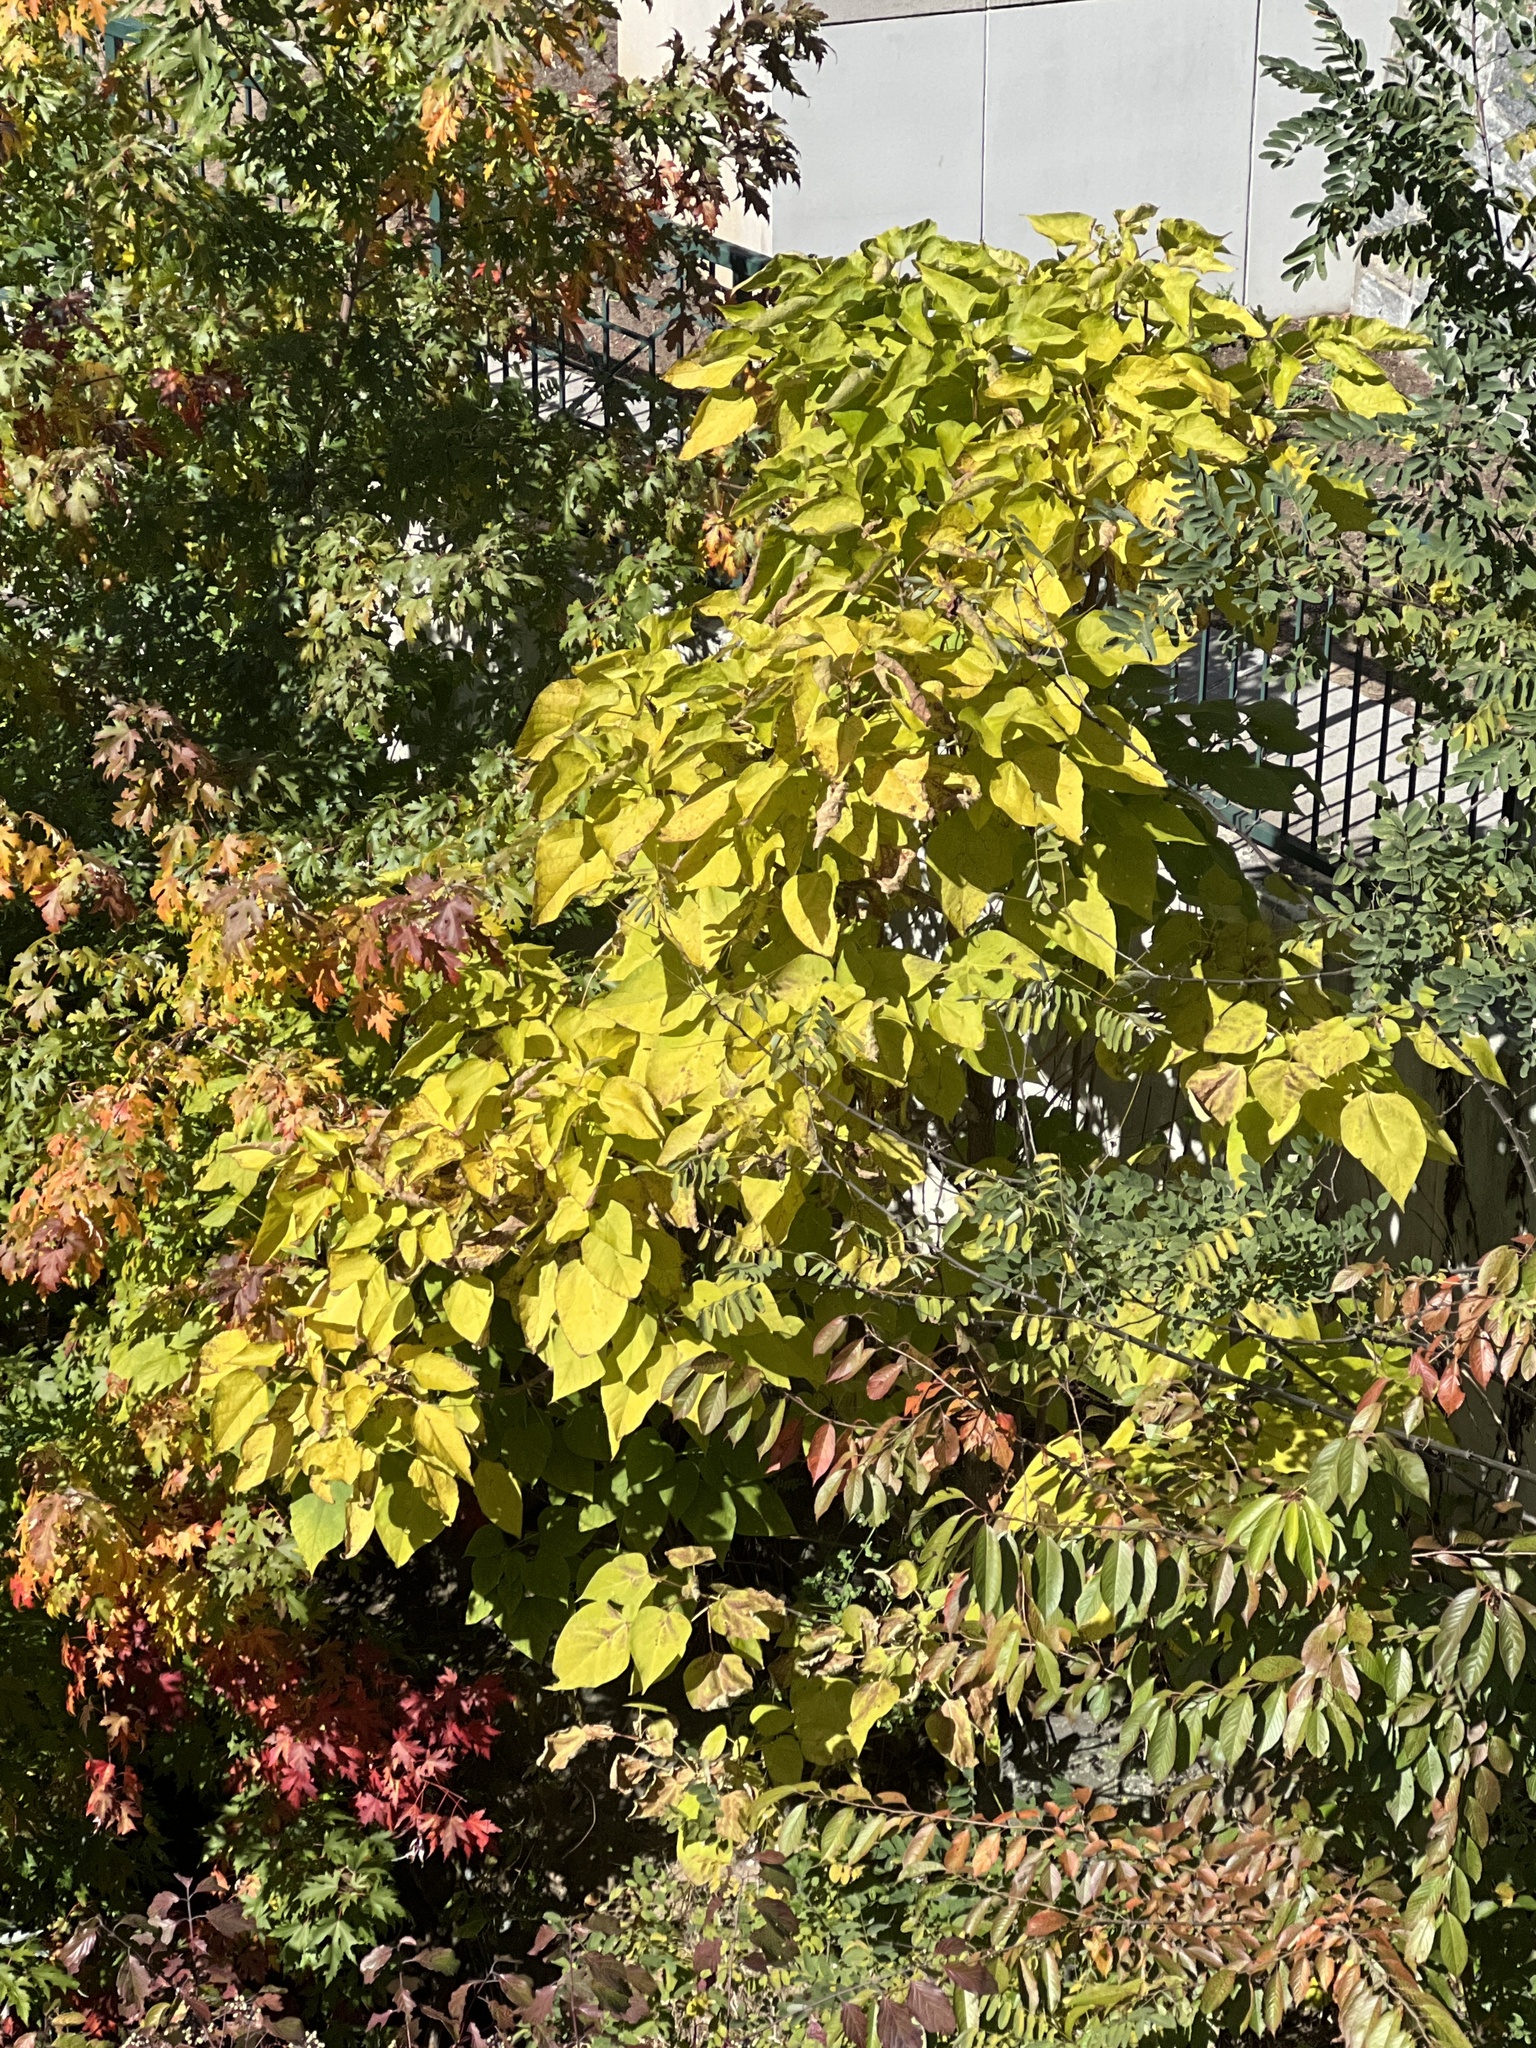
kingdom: Plantae
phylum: Tracheophyta
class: Magnoliopsida
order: Lamiales
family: Paulowniaceae
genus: Paulownia
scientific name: Paulownia tomentosa
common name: Foxglove-tree
